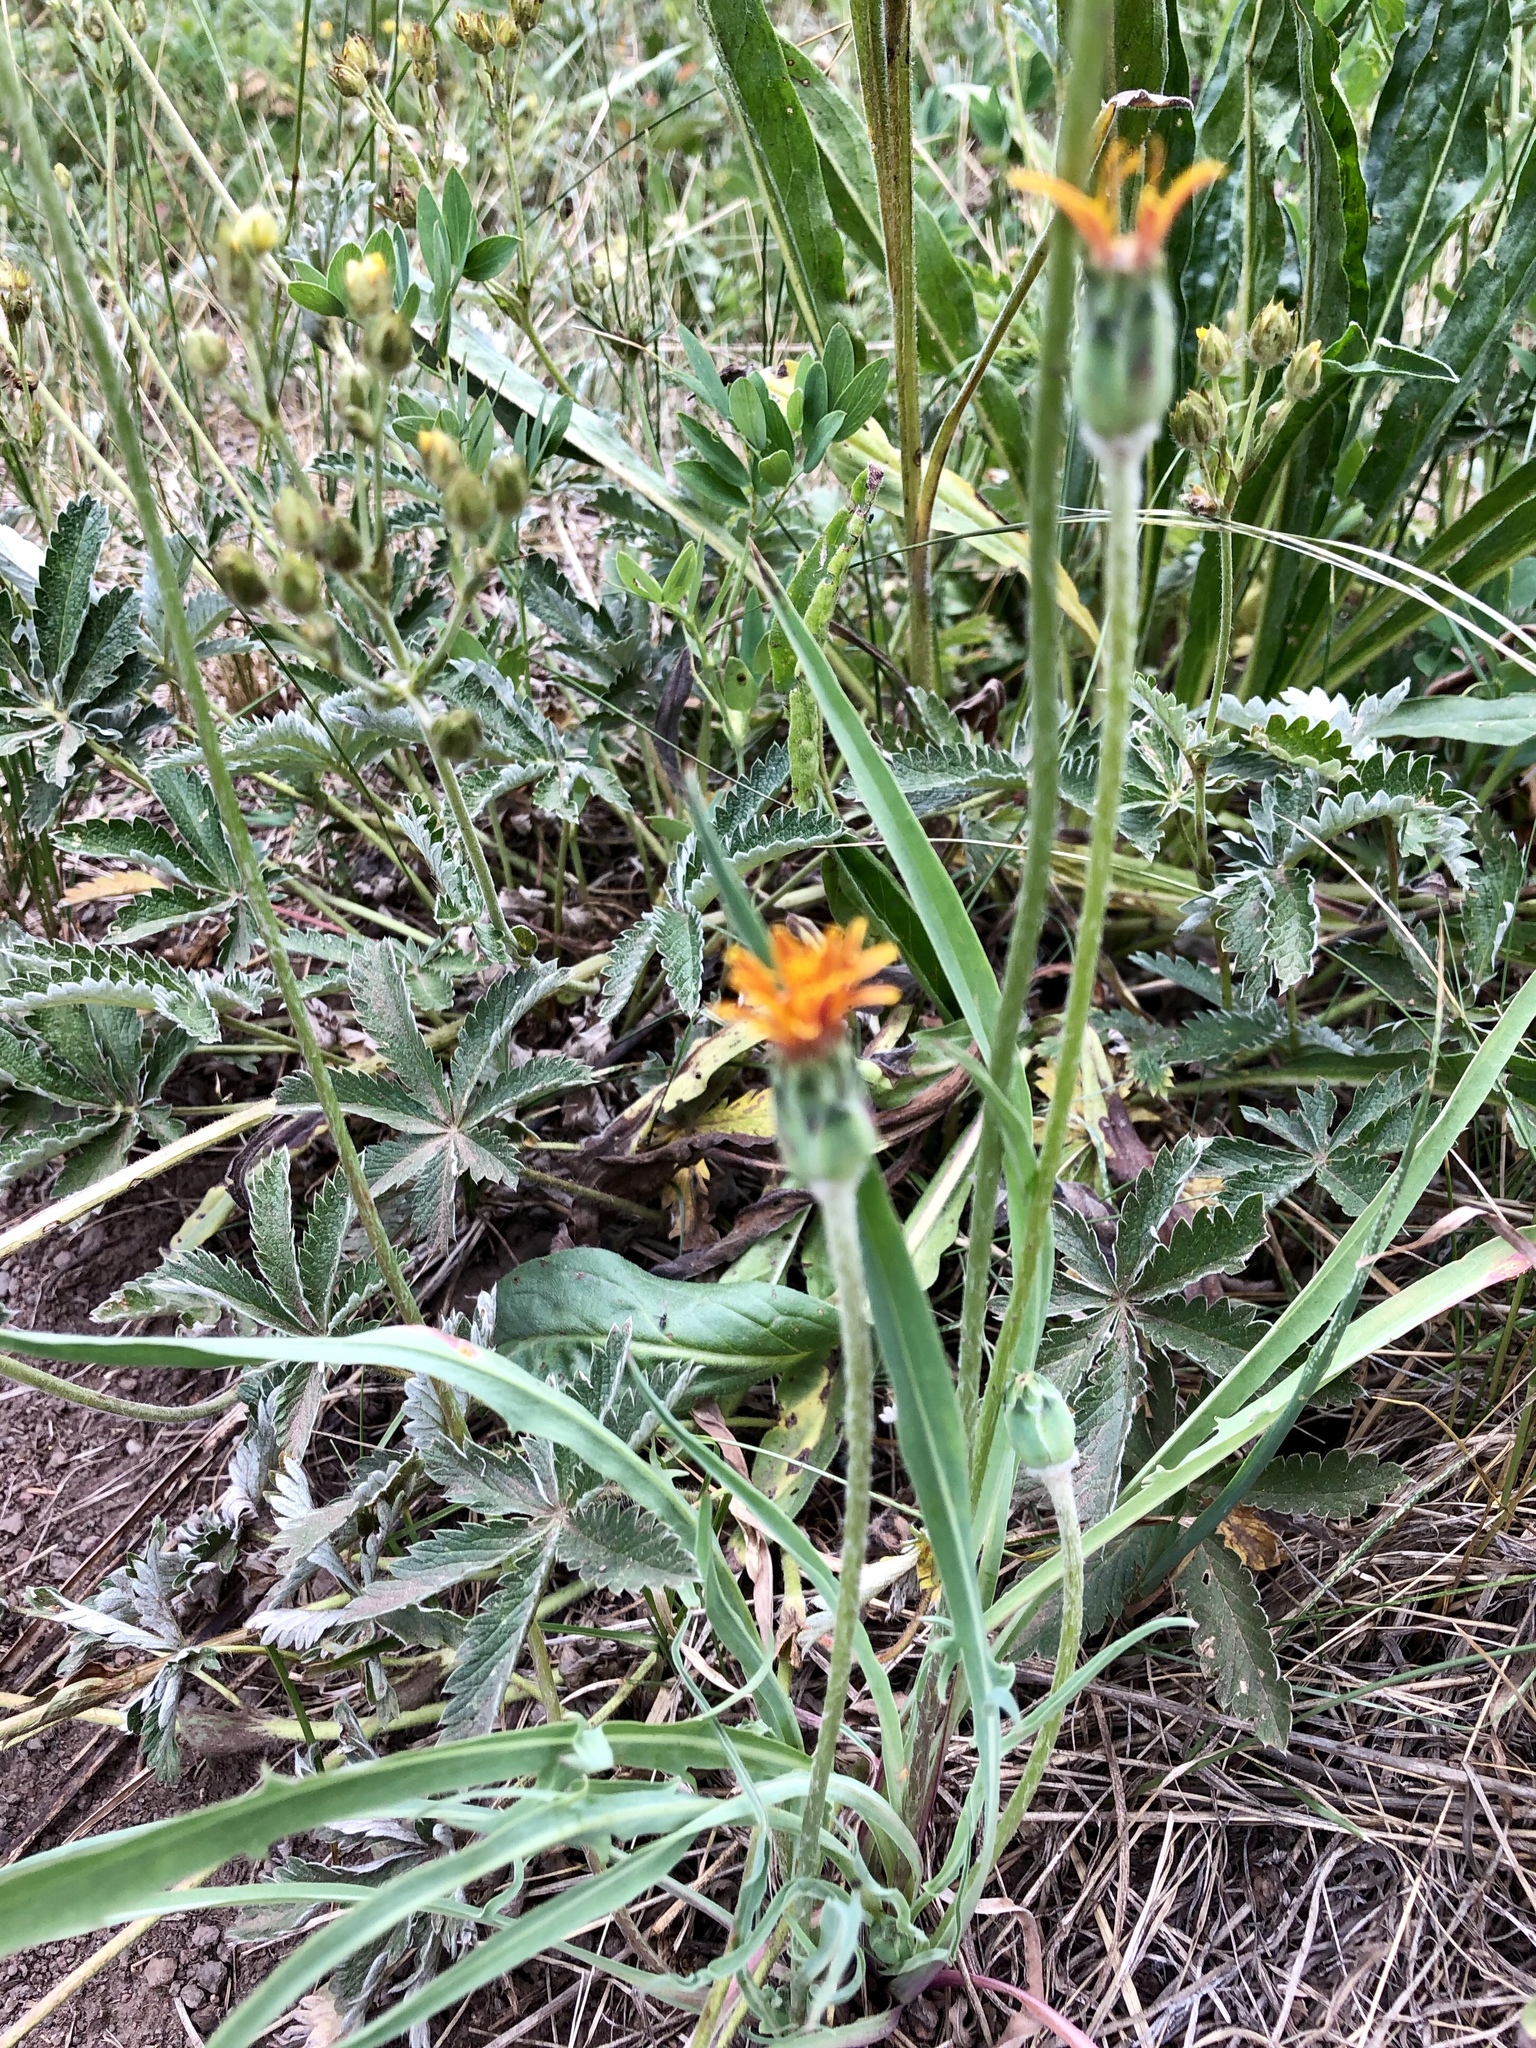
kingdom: Plantae
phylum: Tracheophyta
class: Magnoliopsida
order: Asterales
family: Asteraceae
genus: Agoseris
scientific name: Agoseris aurantiaca
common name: Mountain agoseris
